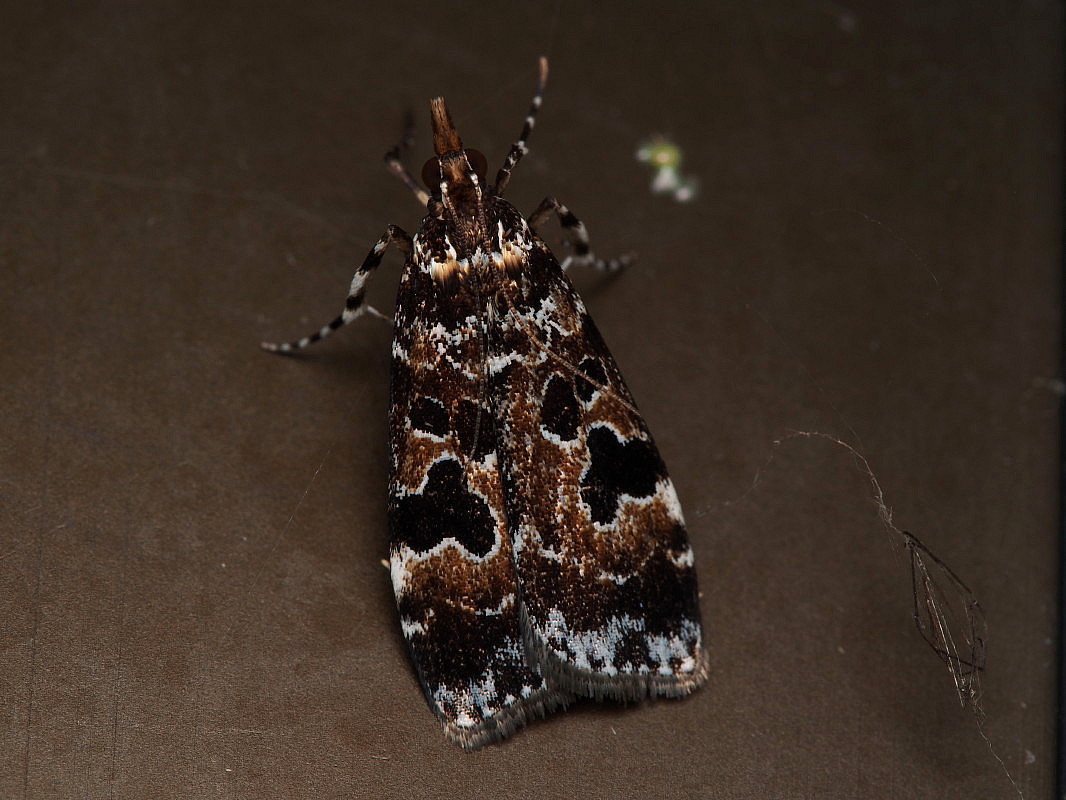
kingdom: Animalia
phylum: Arthropoda
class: Insecta
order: Lepidoptera
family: Crambidae
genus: Scoparia
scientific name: Scoparia ustimacula
